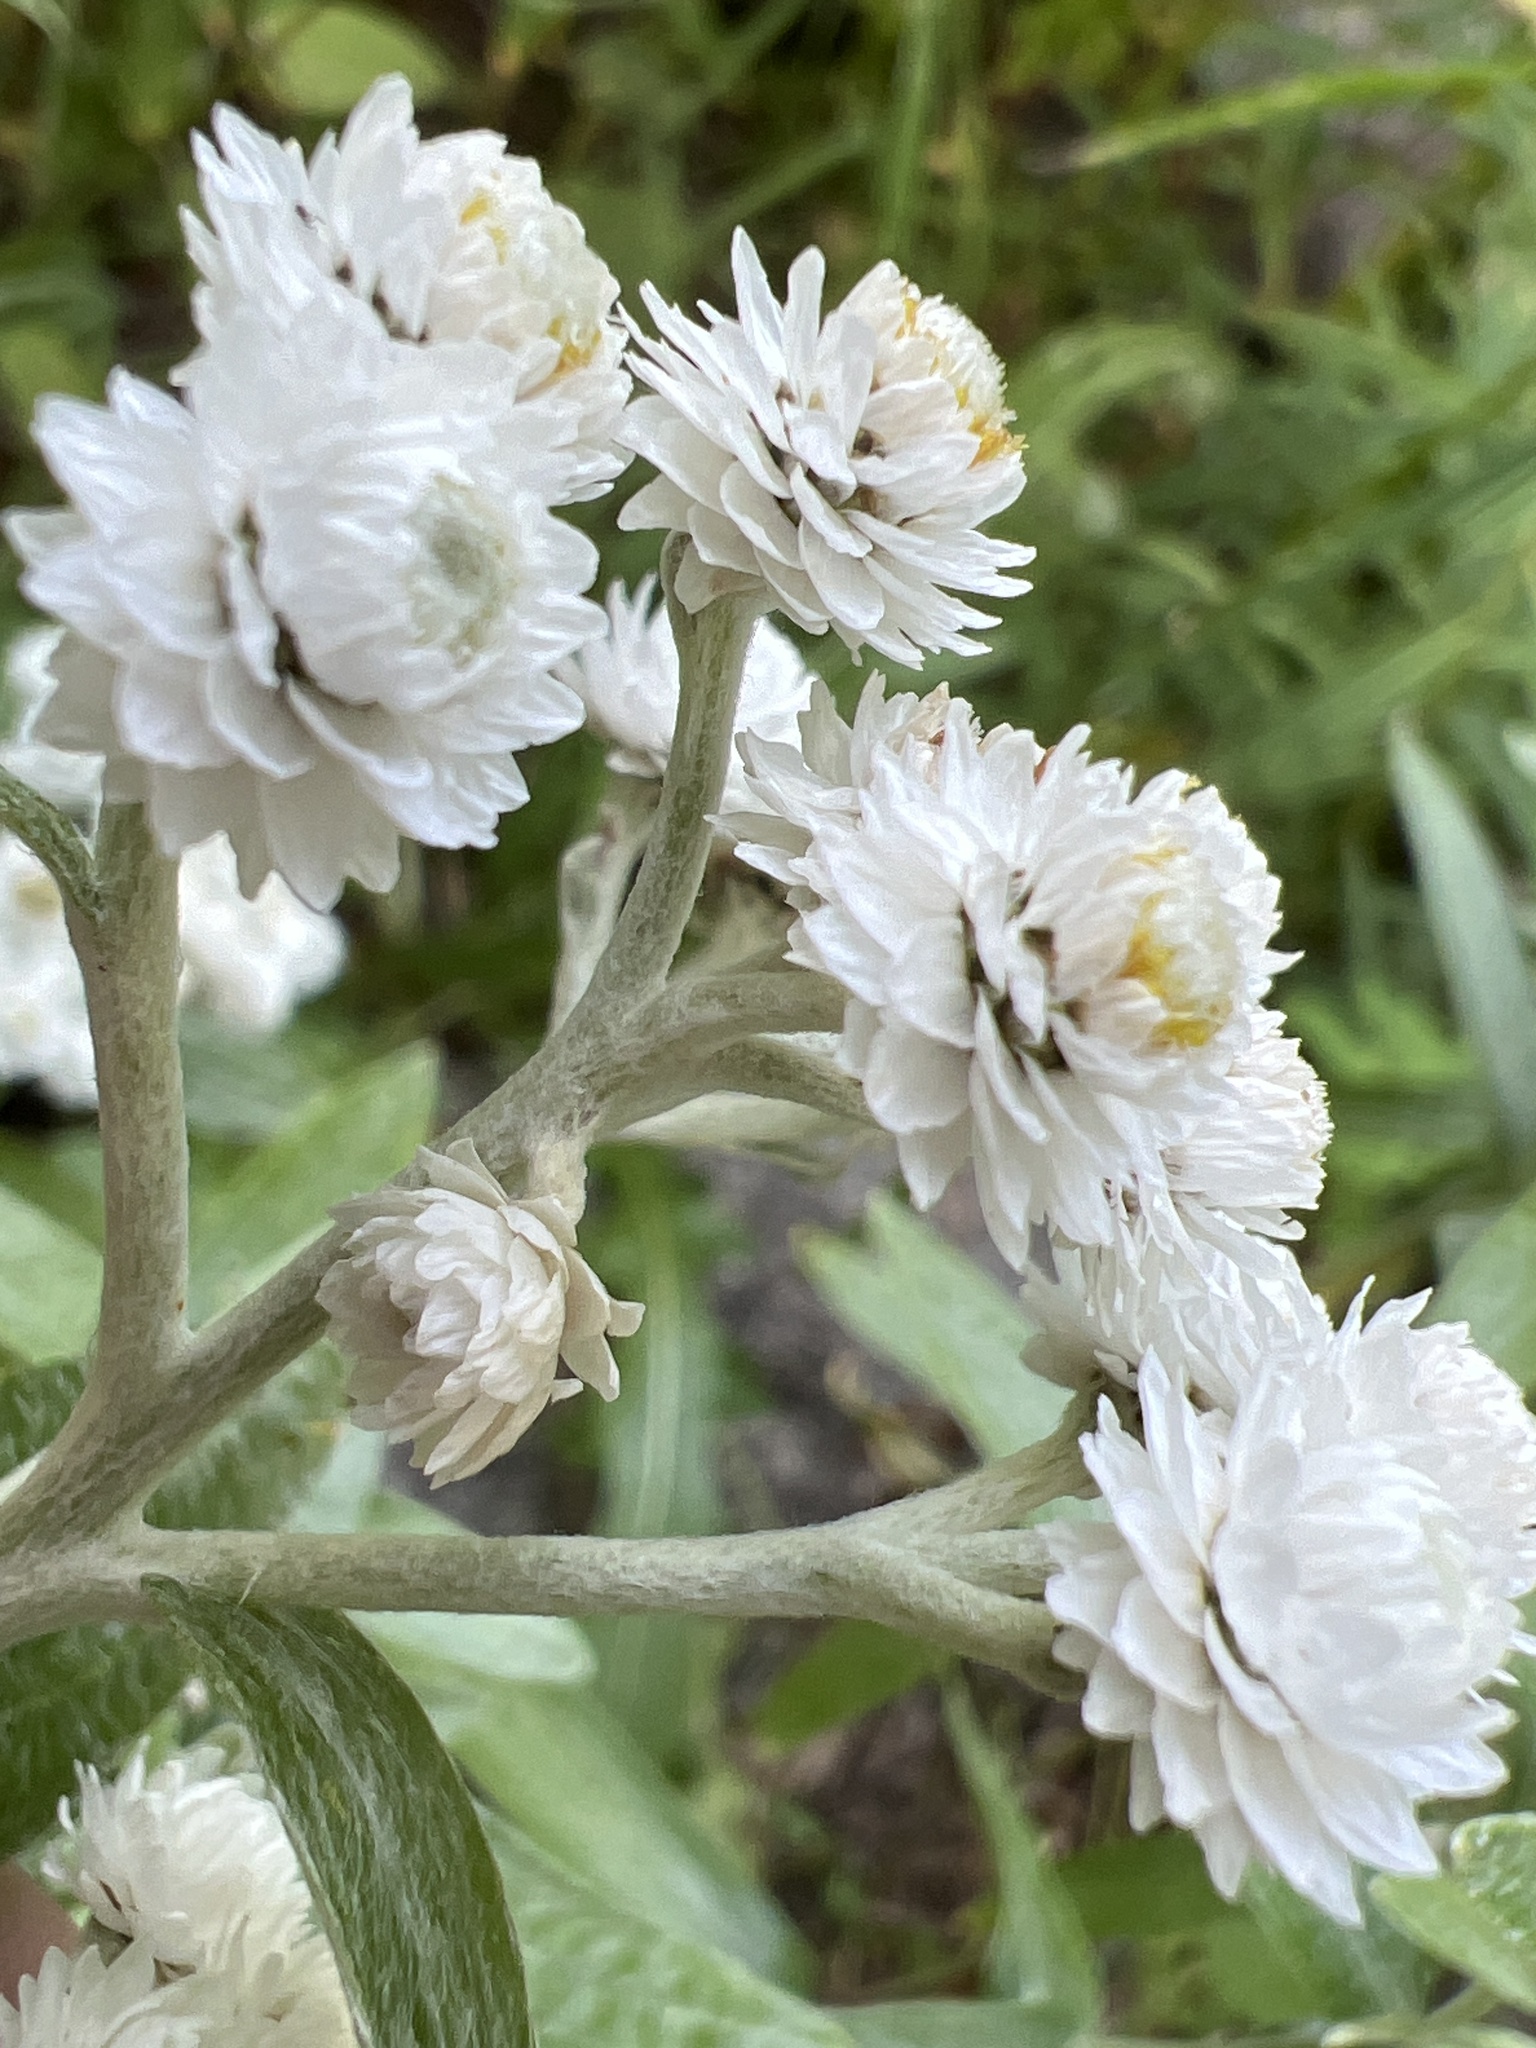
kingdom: Plantae
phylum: Tracheophyta
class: Magnoliopsida
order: Asterales
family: Asteraceae
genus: Anaphalis
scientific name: Anaphalis margaritacea
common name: Pearly everlasting
